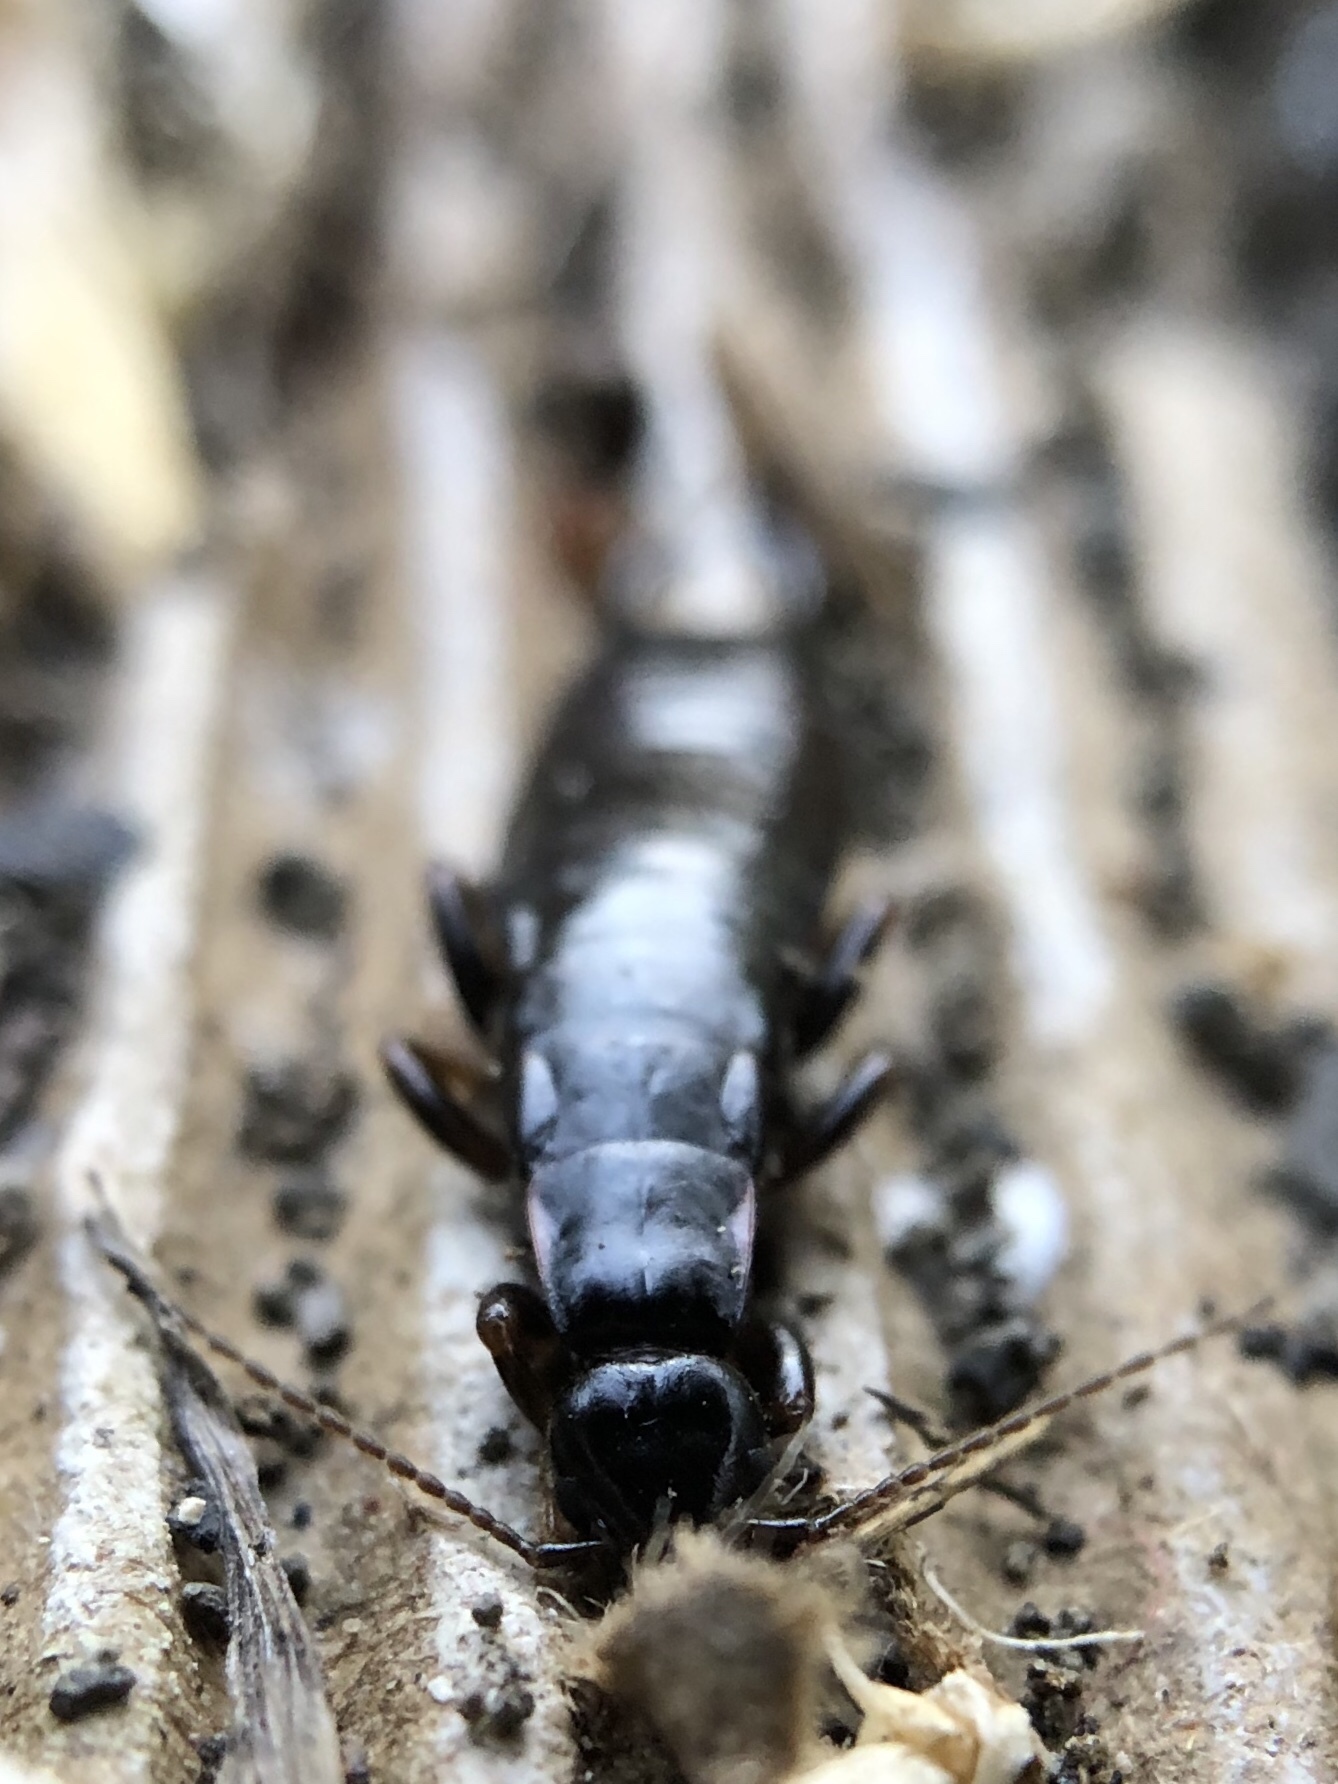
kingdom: Animalia
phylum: Arthropoda
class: Insecta
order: Dermaptera
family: Anisolabididae
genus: Euborellia
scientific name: Euborellia moesta
